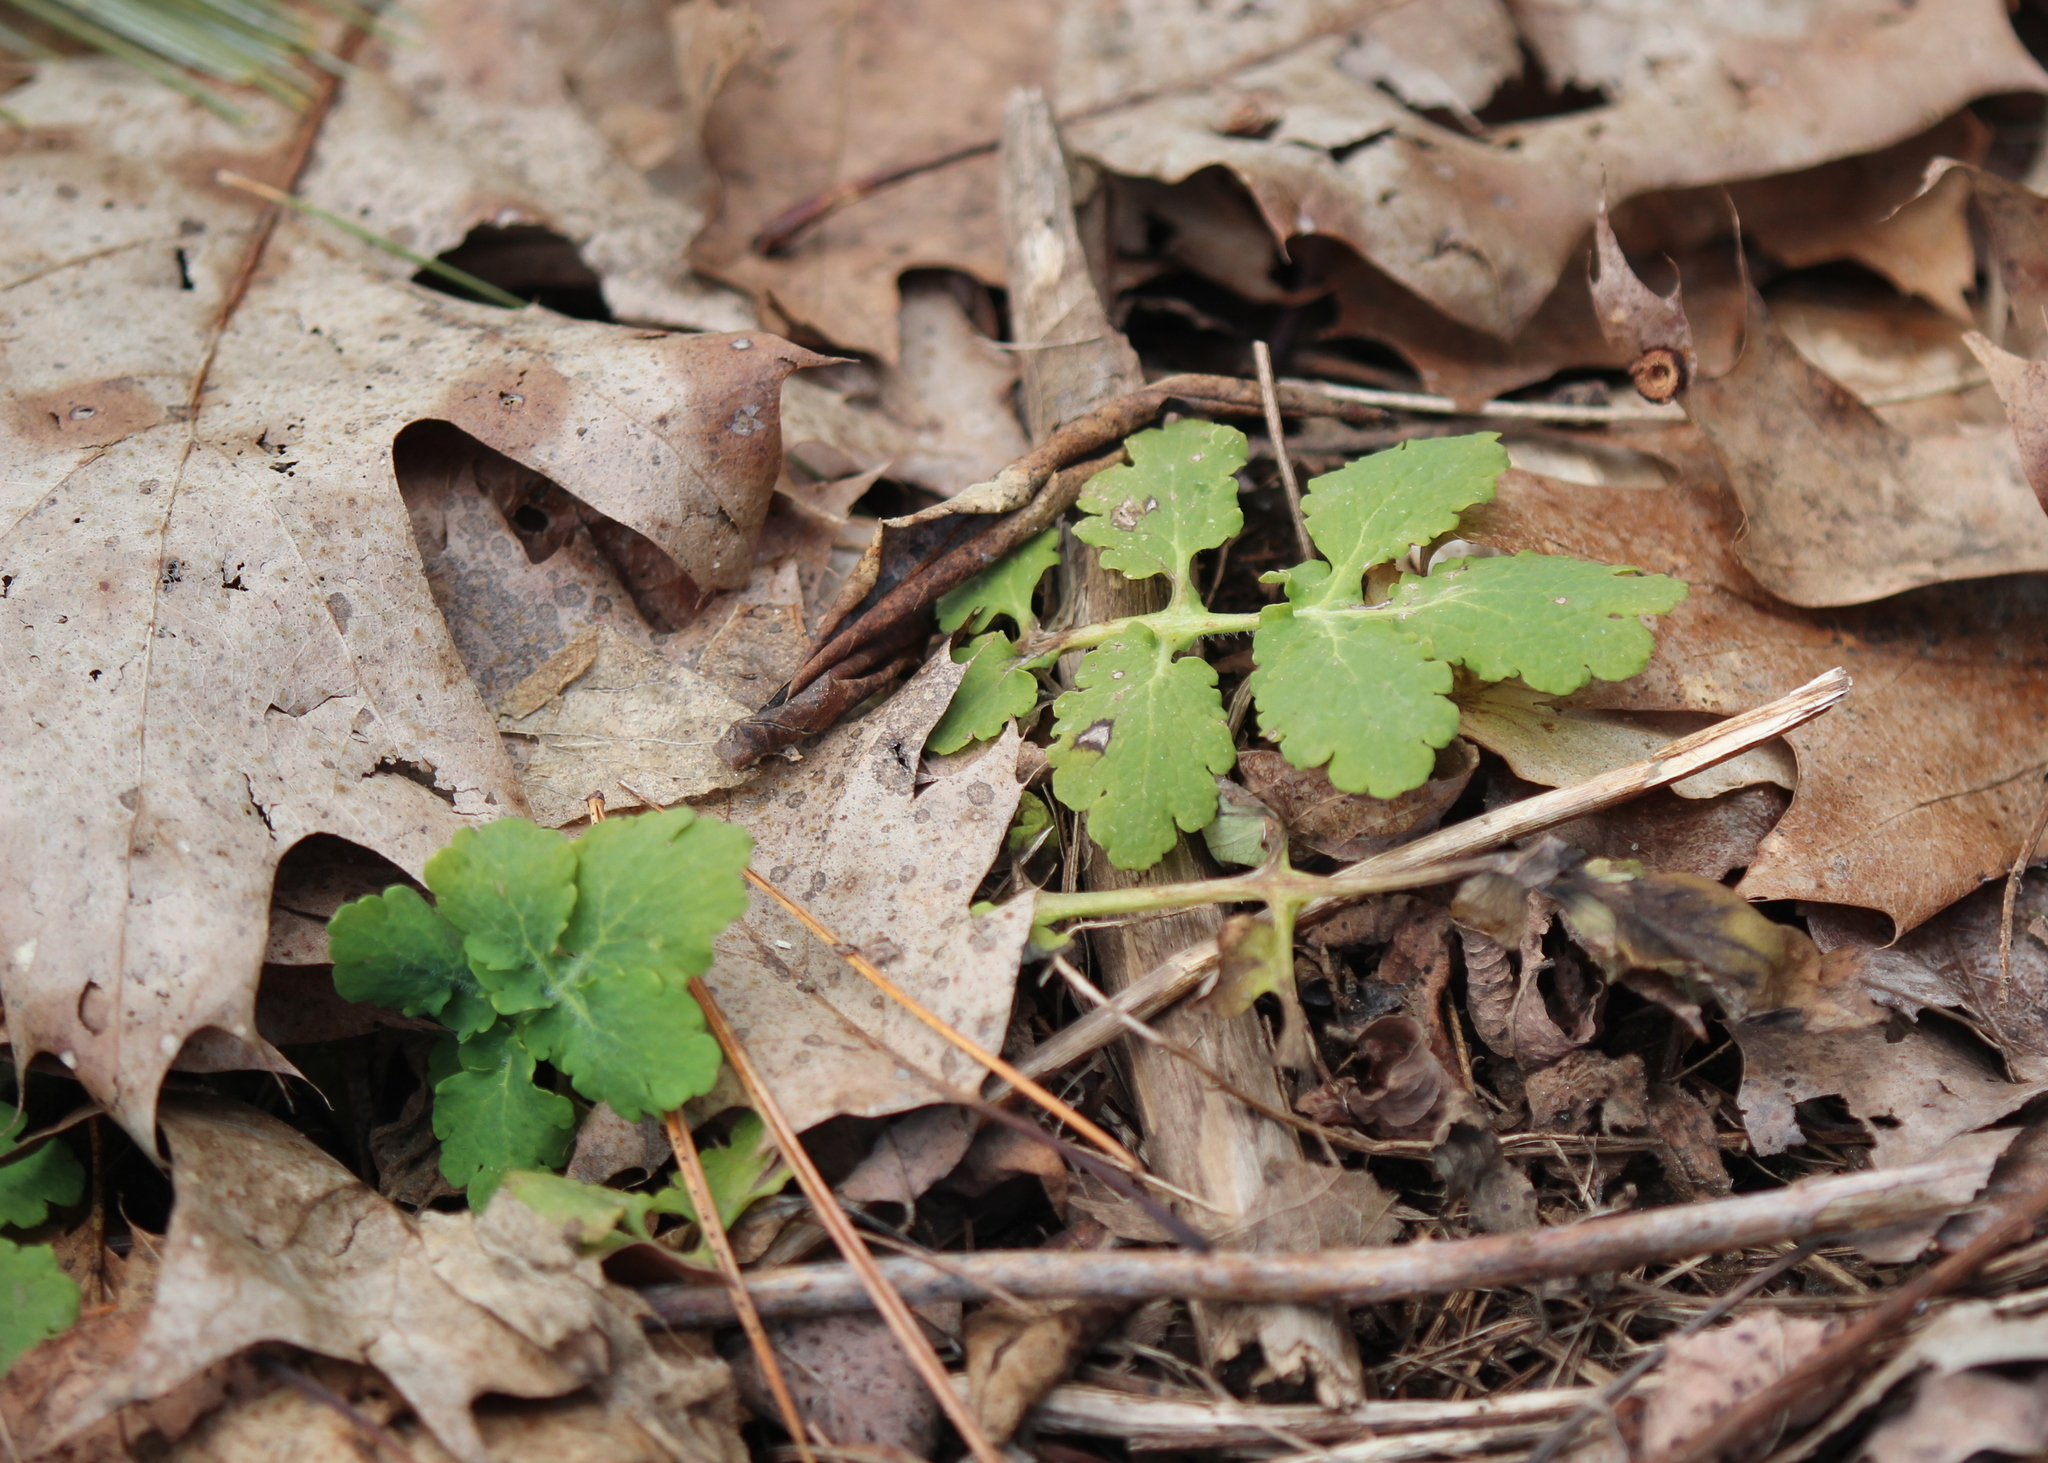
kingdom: Plantae
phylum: Tracheophyta
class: Magnoliopsida
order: Ranunculales
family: Papaveraceae
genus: Chelidonium
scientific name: Chelidonium majus
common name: Greater celandine
